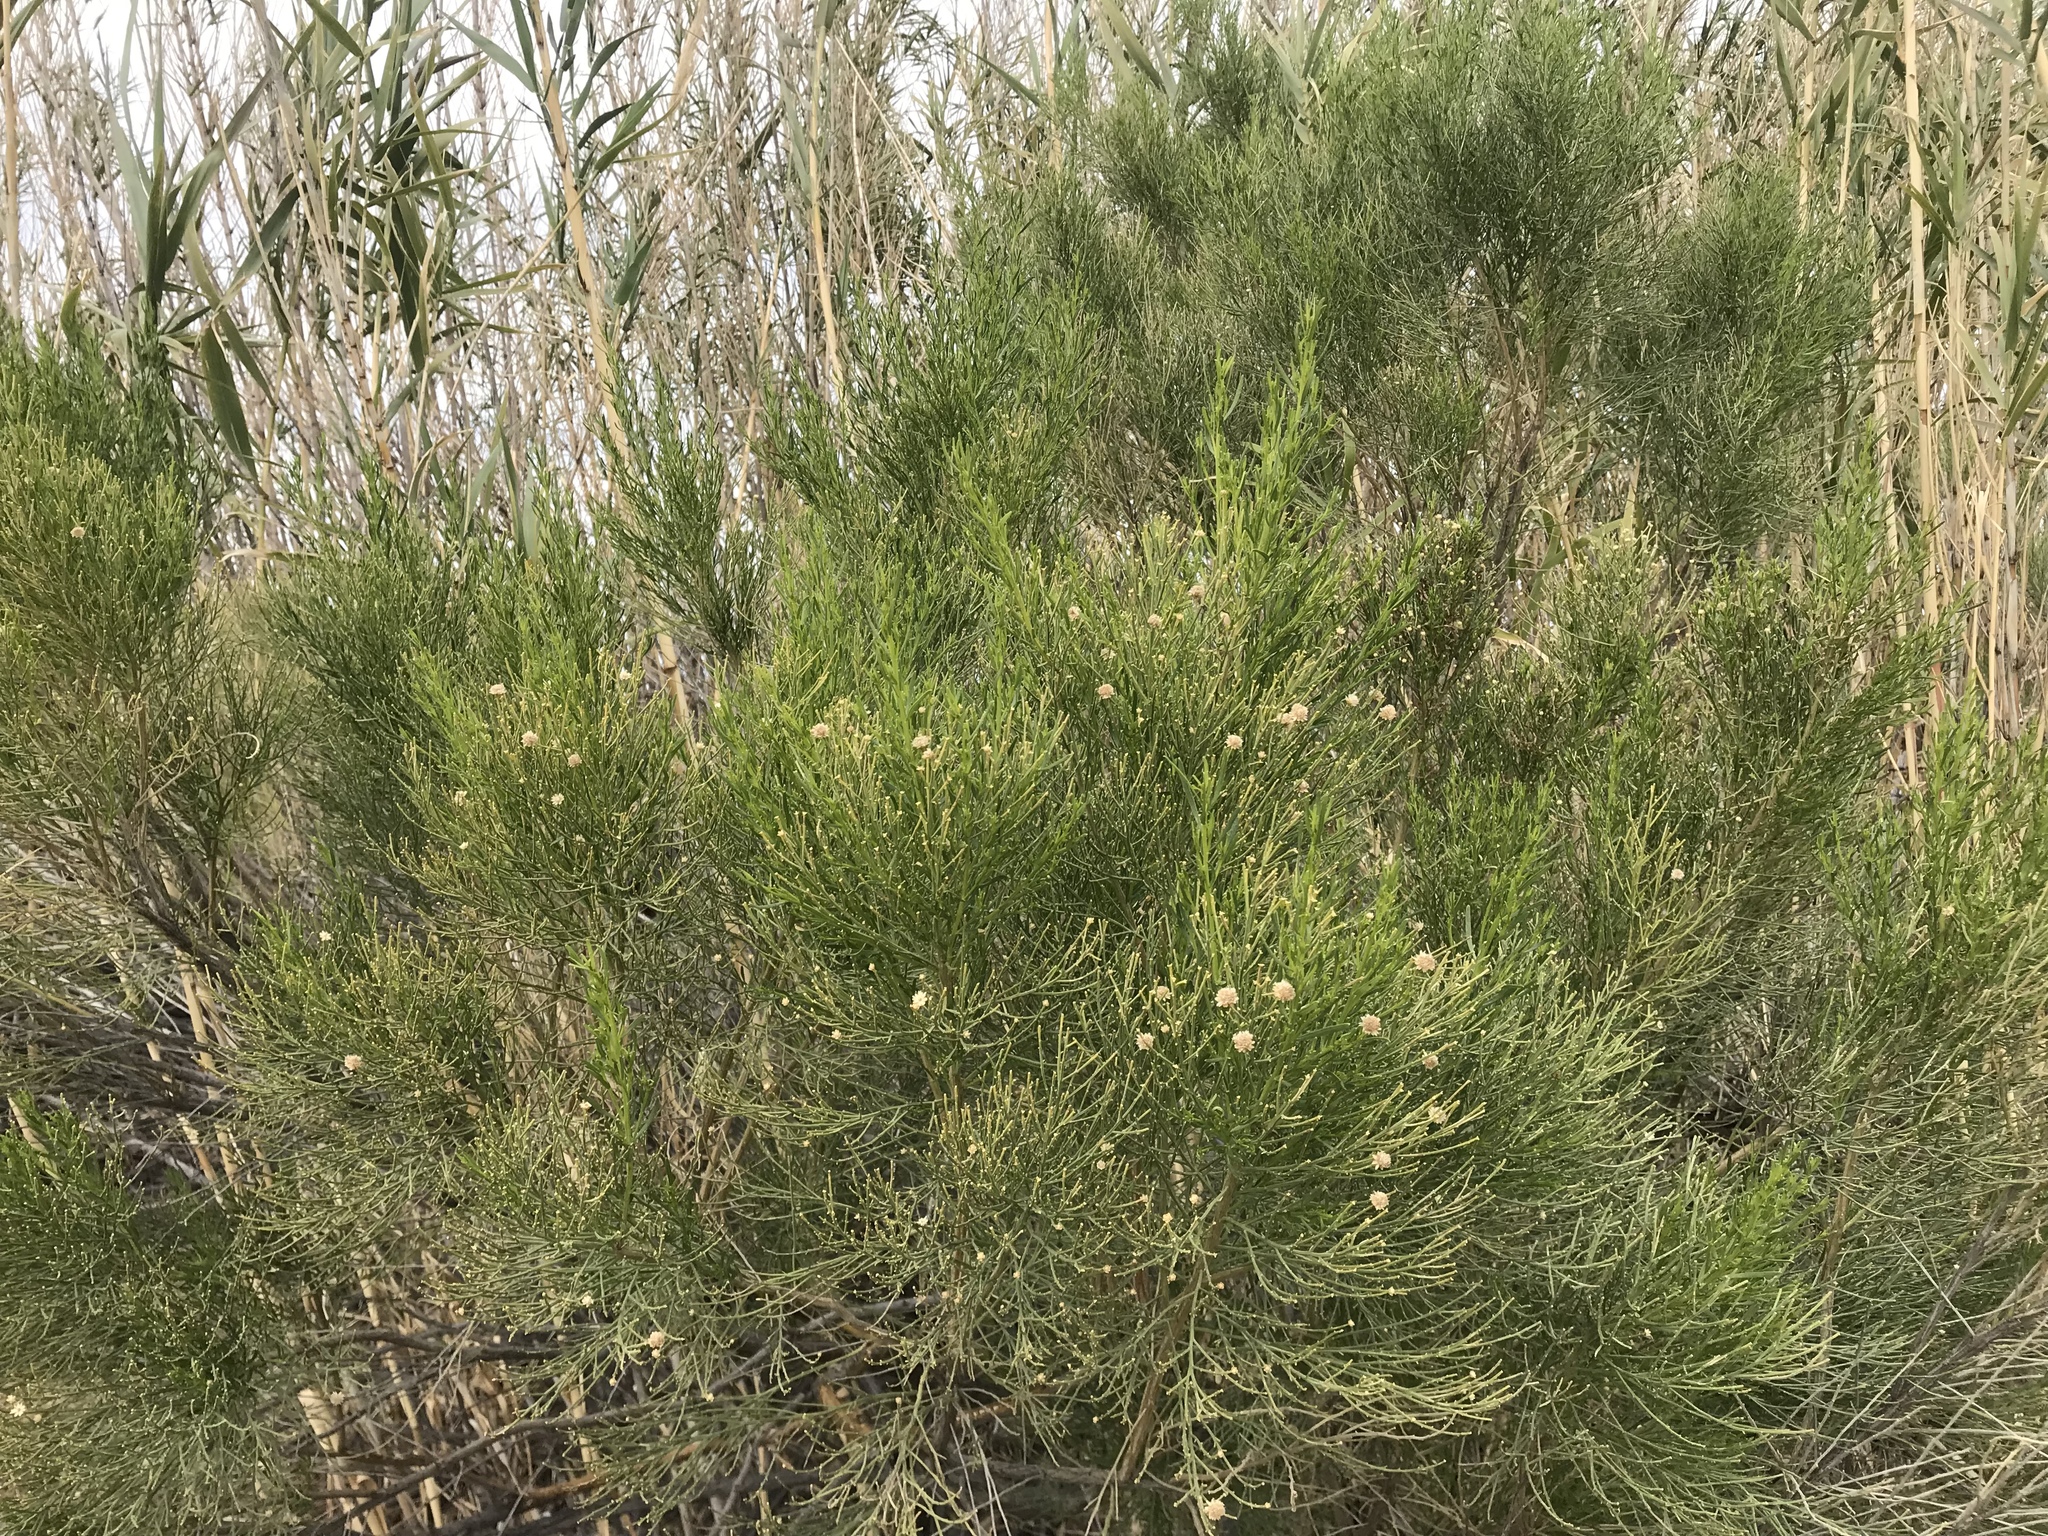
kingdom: Plantae
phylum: Tracheophyta
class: Magnoliopsida
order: Asterales
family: Asteraceae
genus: Baccharis
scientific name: Baccharis sarothroides
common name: Desert-broom
